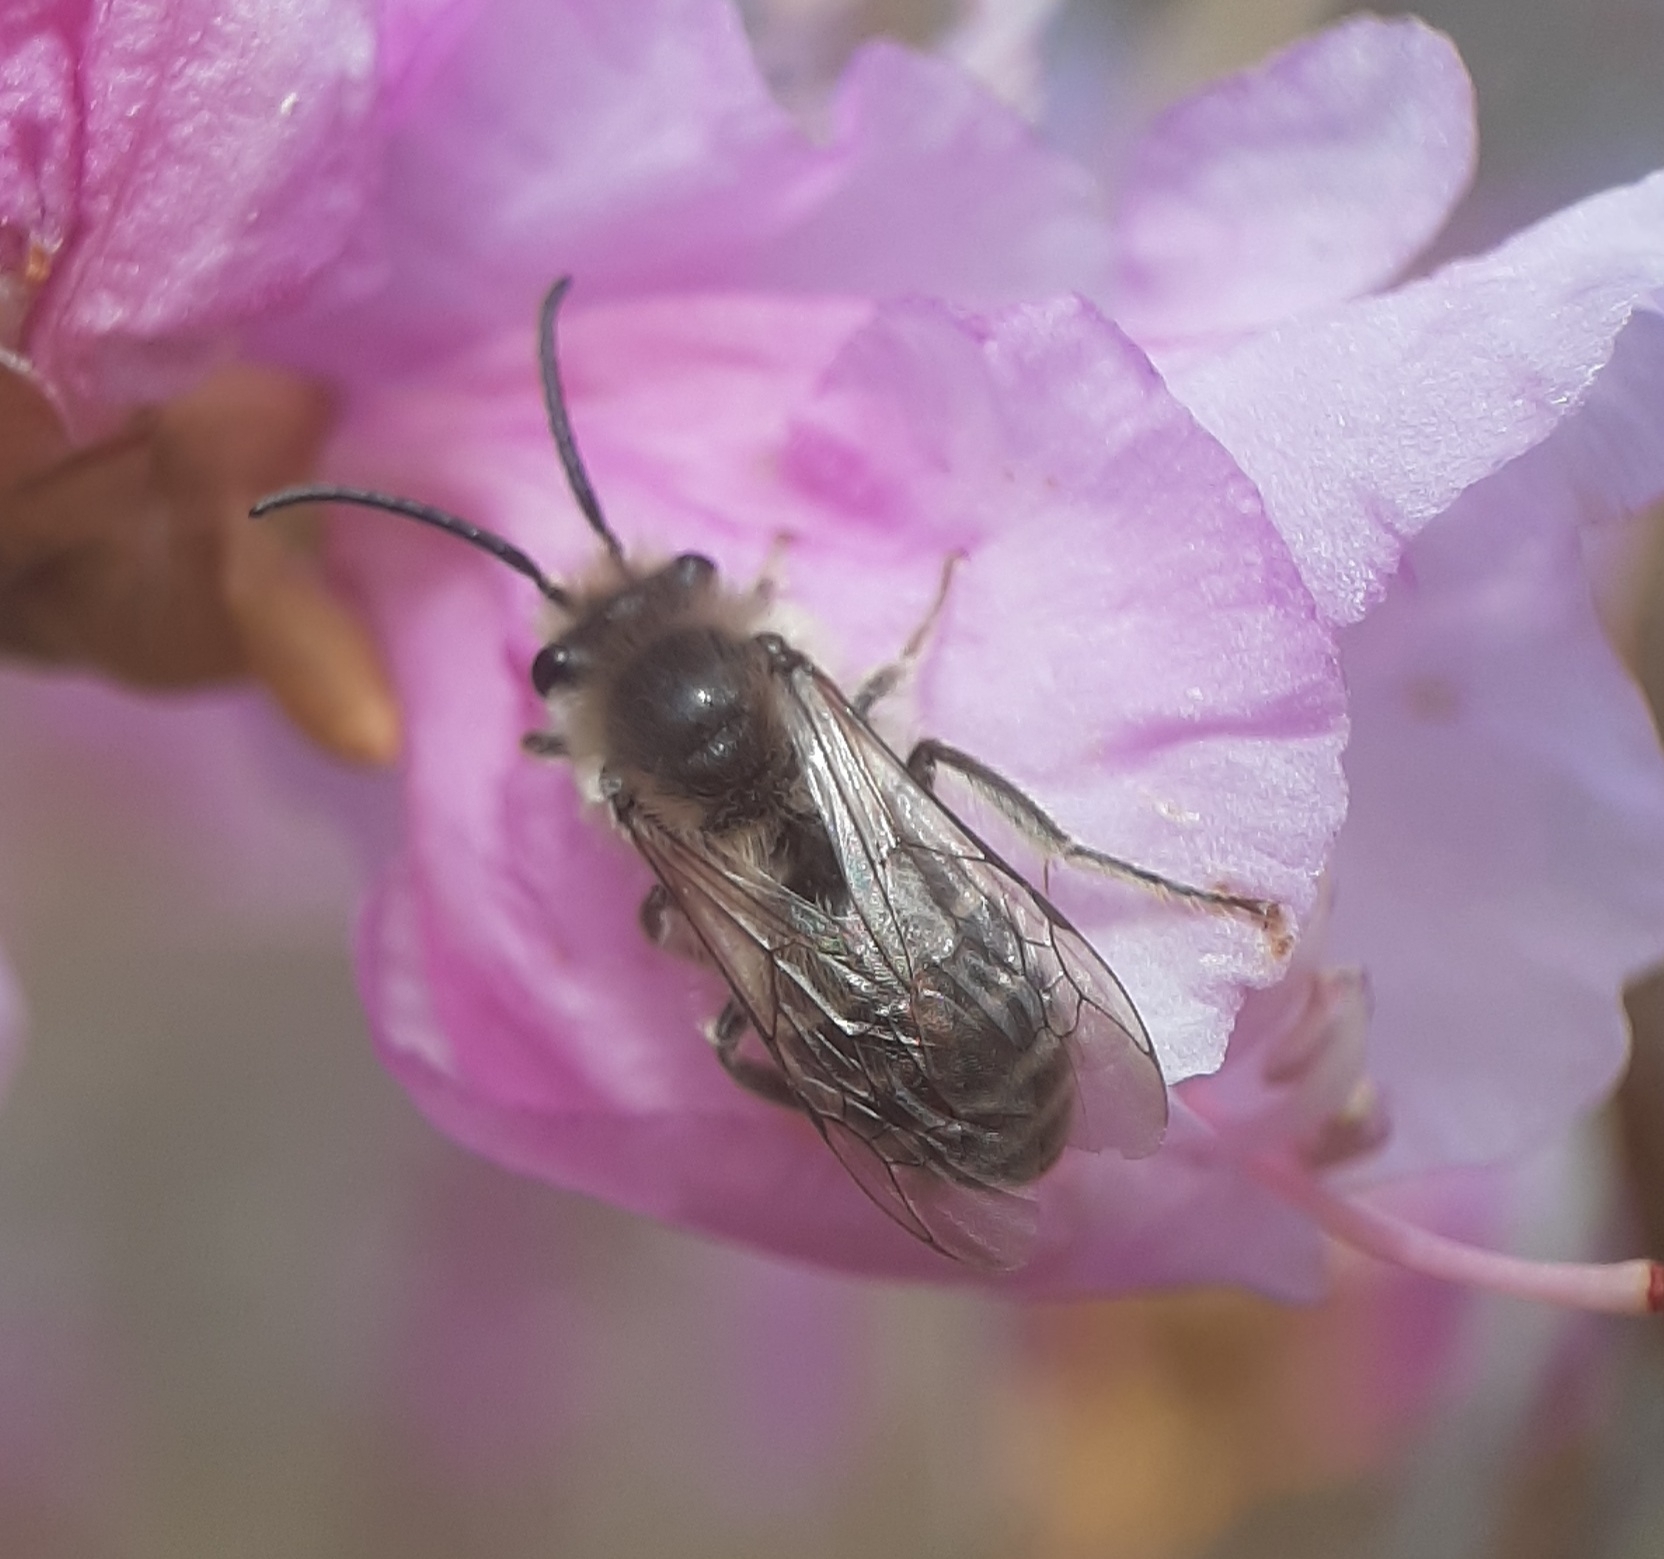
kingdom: Animalia
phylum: Arthropoda
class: Insecta
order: Hymenoptera
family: Colletidae
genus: Colletes
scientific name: Colletes inaequalis
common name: Unequal cellophane bee
